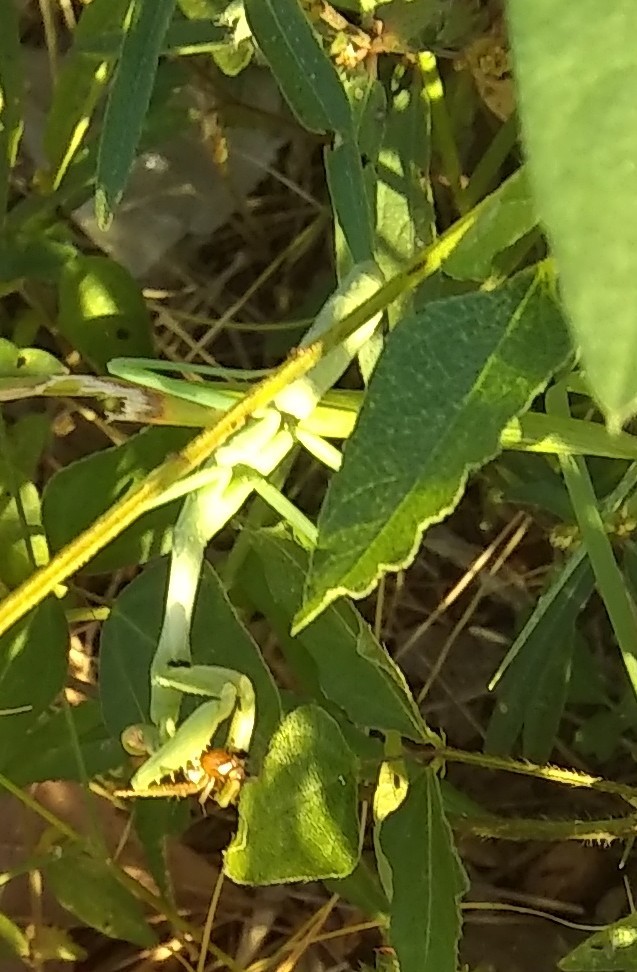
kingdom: Animalia
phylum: Arthropoda
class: Insecta
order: Mantodea
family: Mantidae
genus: Stagmomantis
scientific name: Stagmomantis carolina
